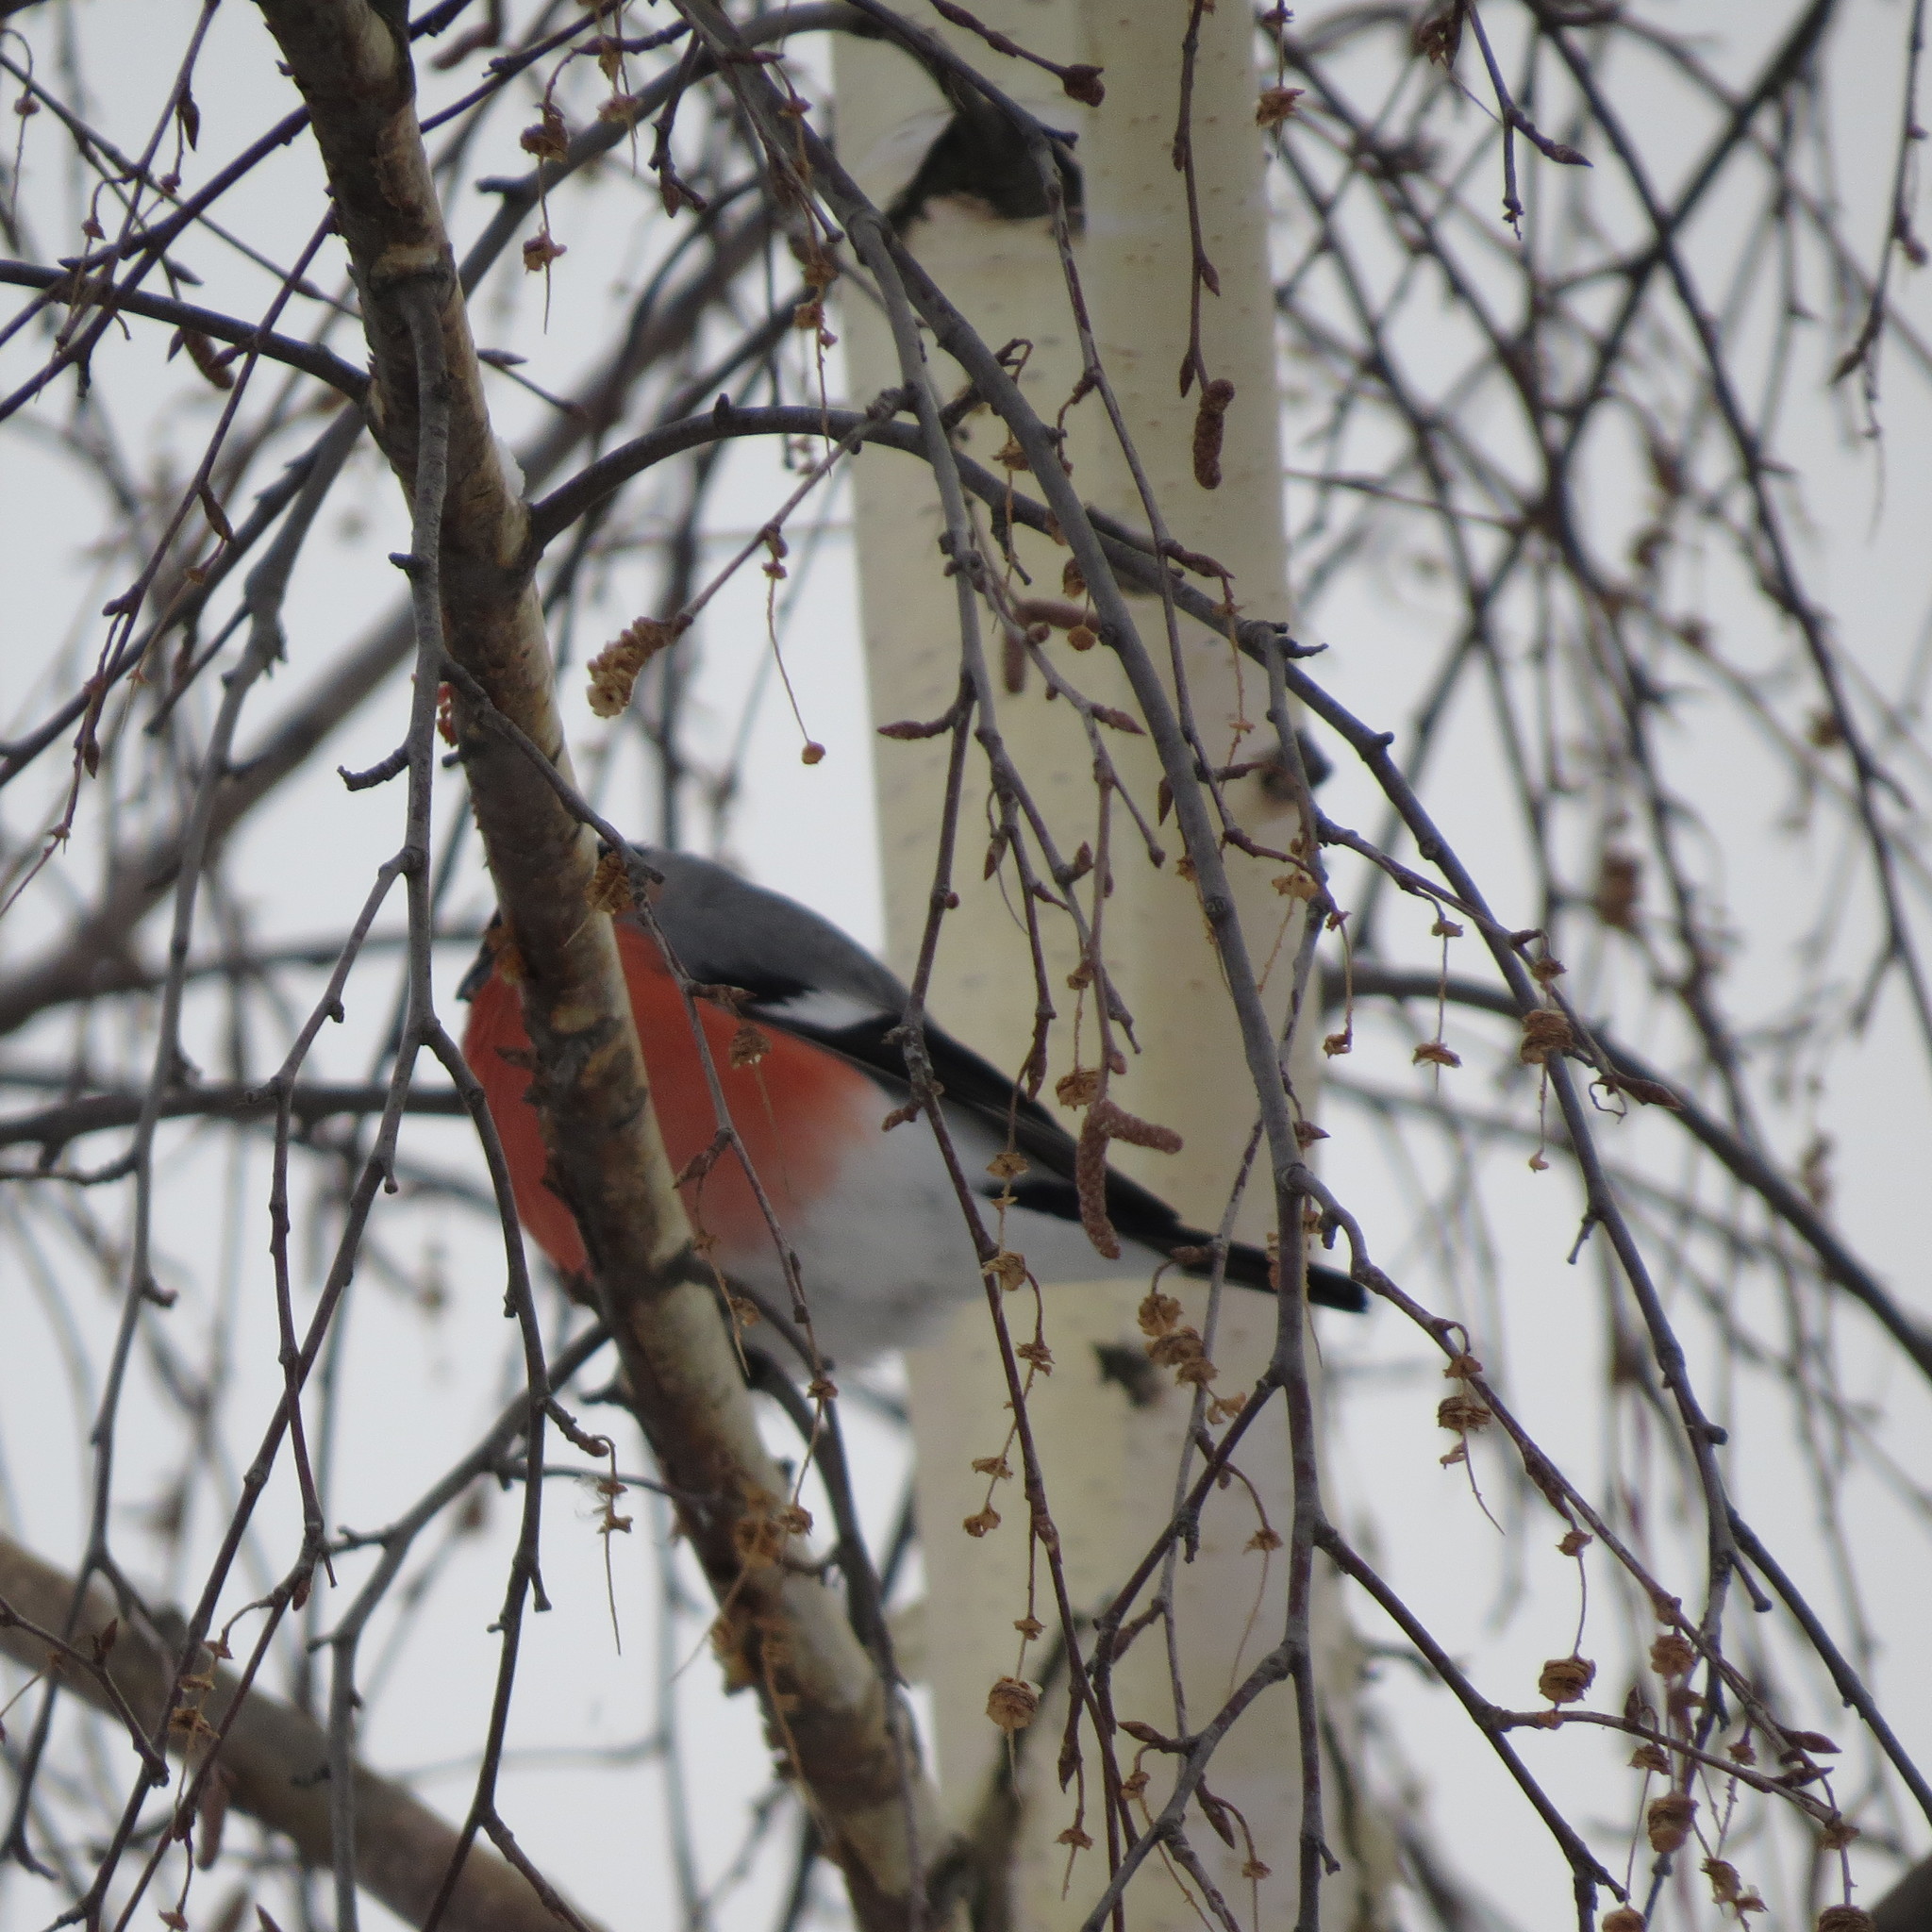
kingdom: Animalia
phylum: Chordata
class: Aves
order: Passeriformes
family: Fringillidae
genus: Pyrrhula
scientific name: Pyrrhula pyrrhula
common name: Eurasian bullfinch
